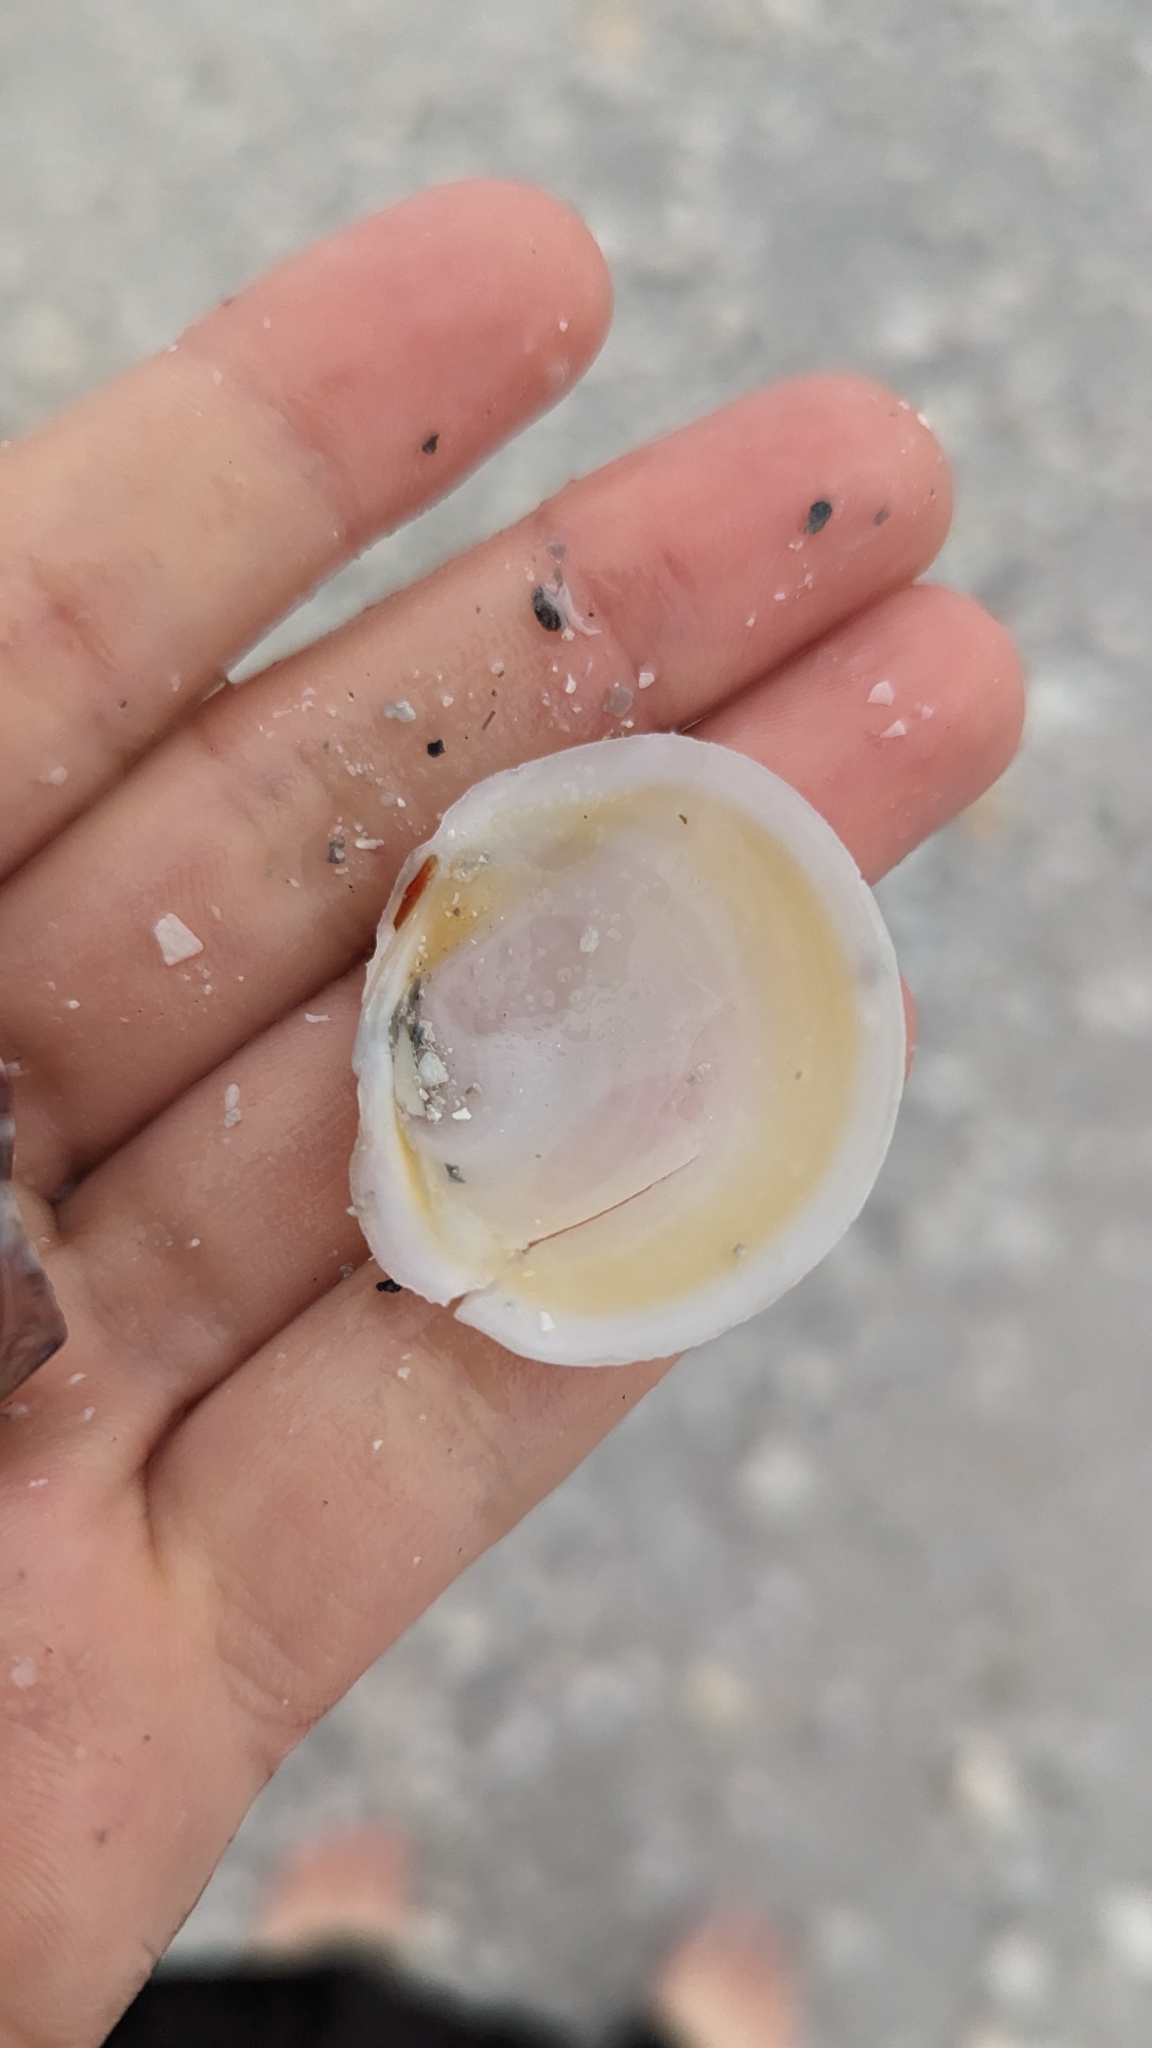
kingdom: Animalia
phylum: Mollusca
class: Bivalvia
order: Lucinida
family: Lucinidae
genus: Anodontia
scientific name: Anodontia alba
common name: Buttercup lucine
